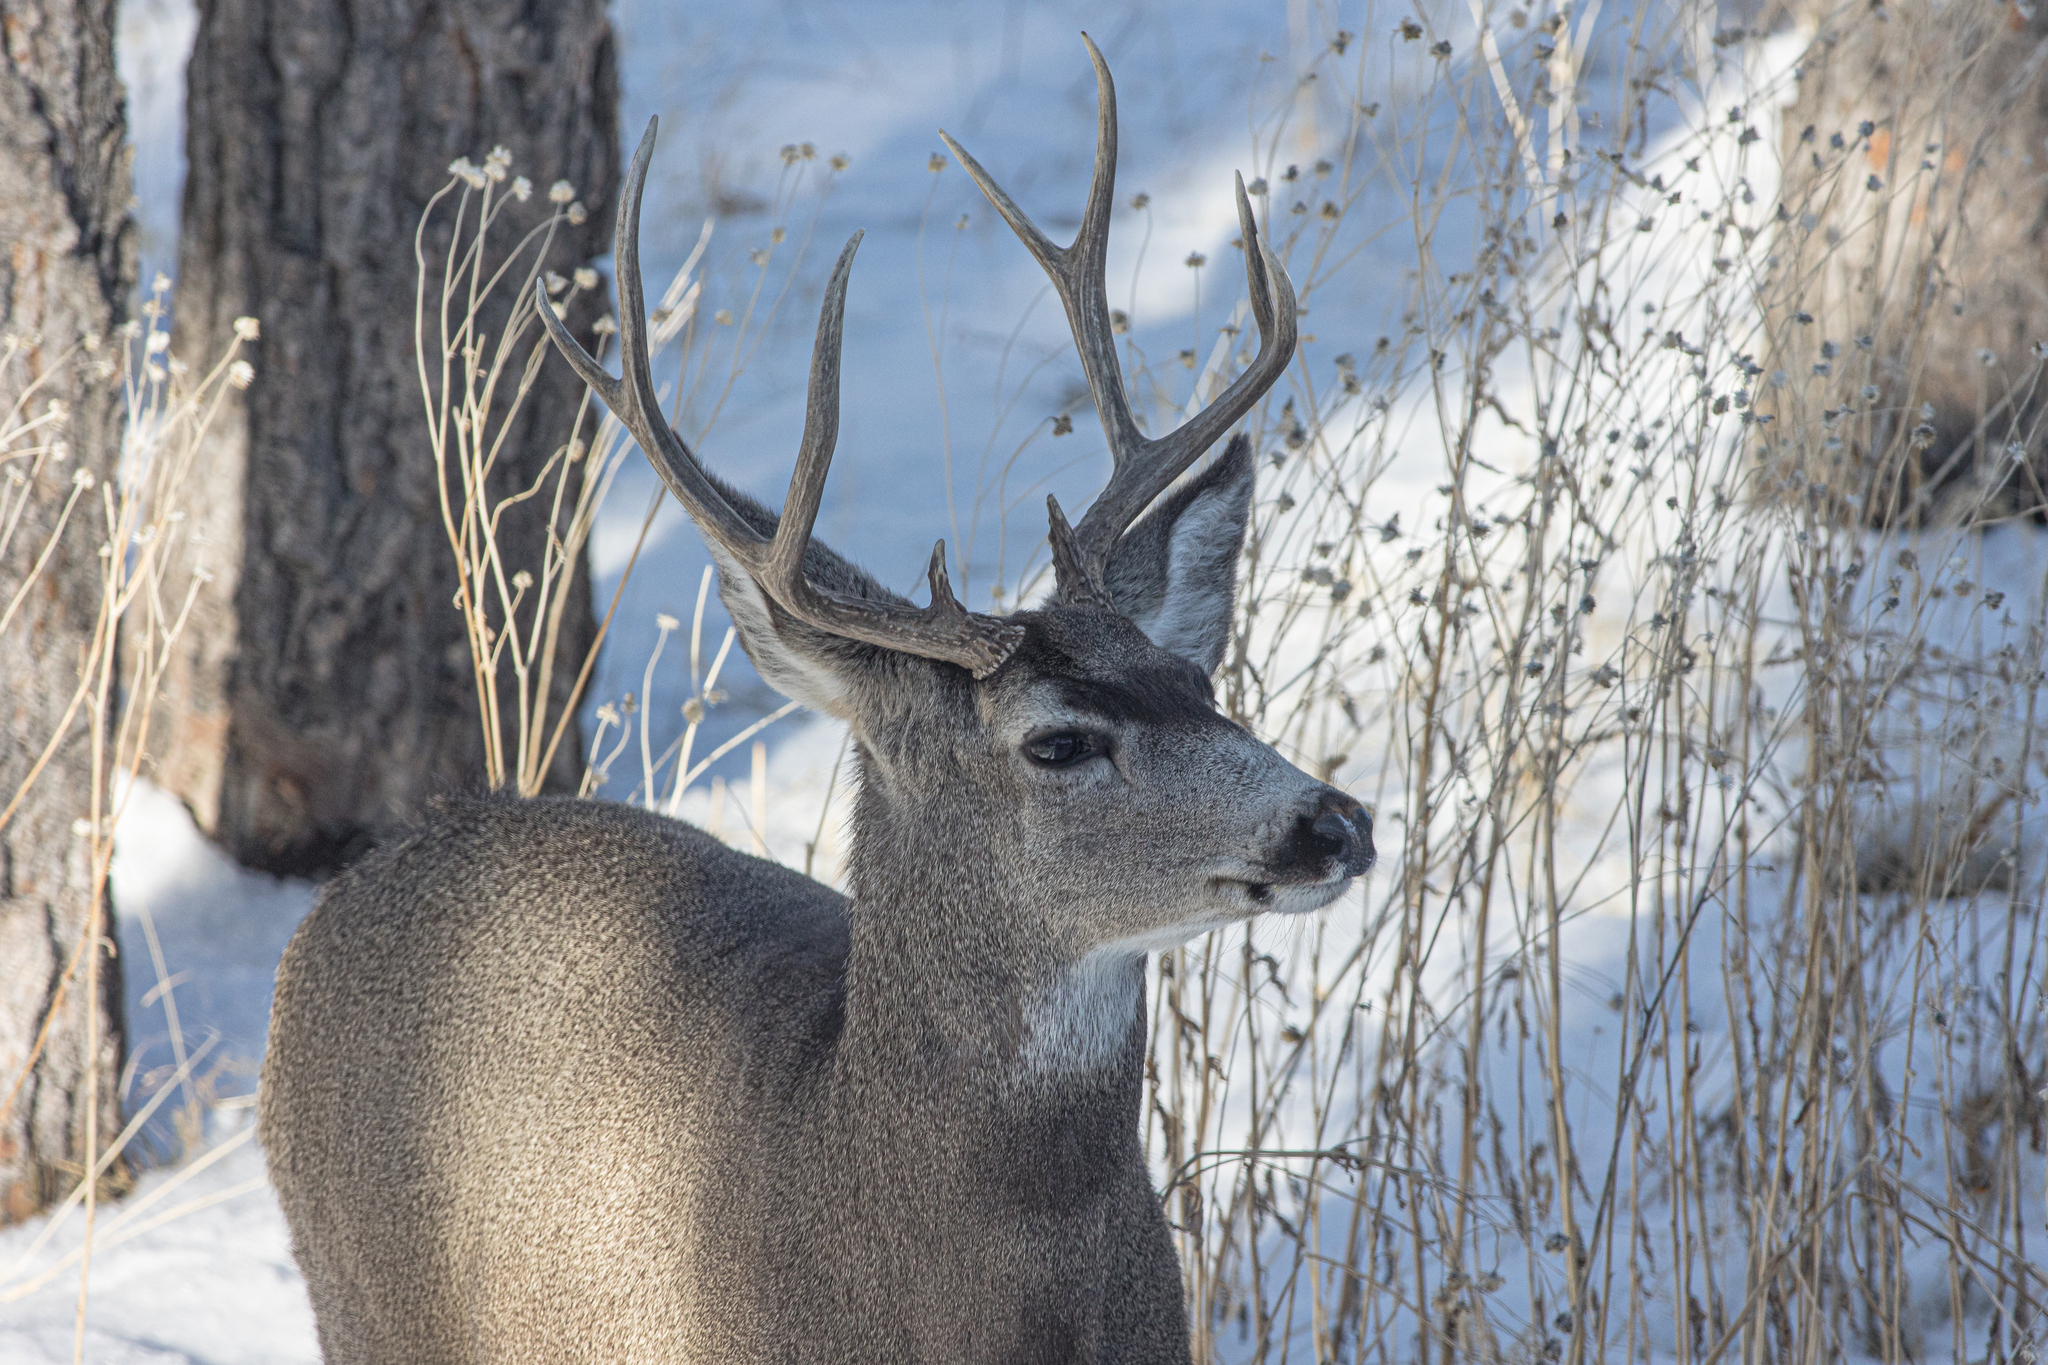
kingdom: Animalia
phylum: Chordata
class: Mammalia
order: Artiodactyla
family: Cervidae
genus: Odocoileus
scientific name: Odocoileus hemionus
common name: Mule deer
